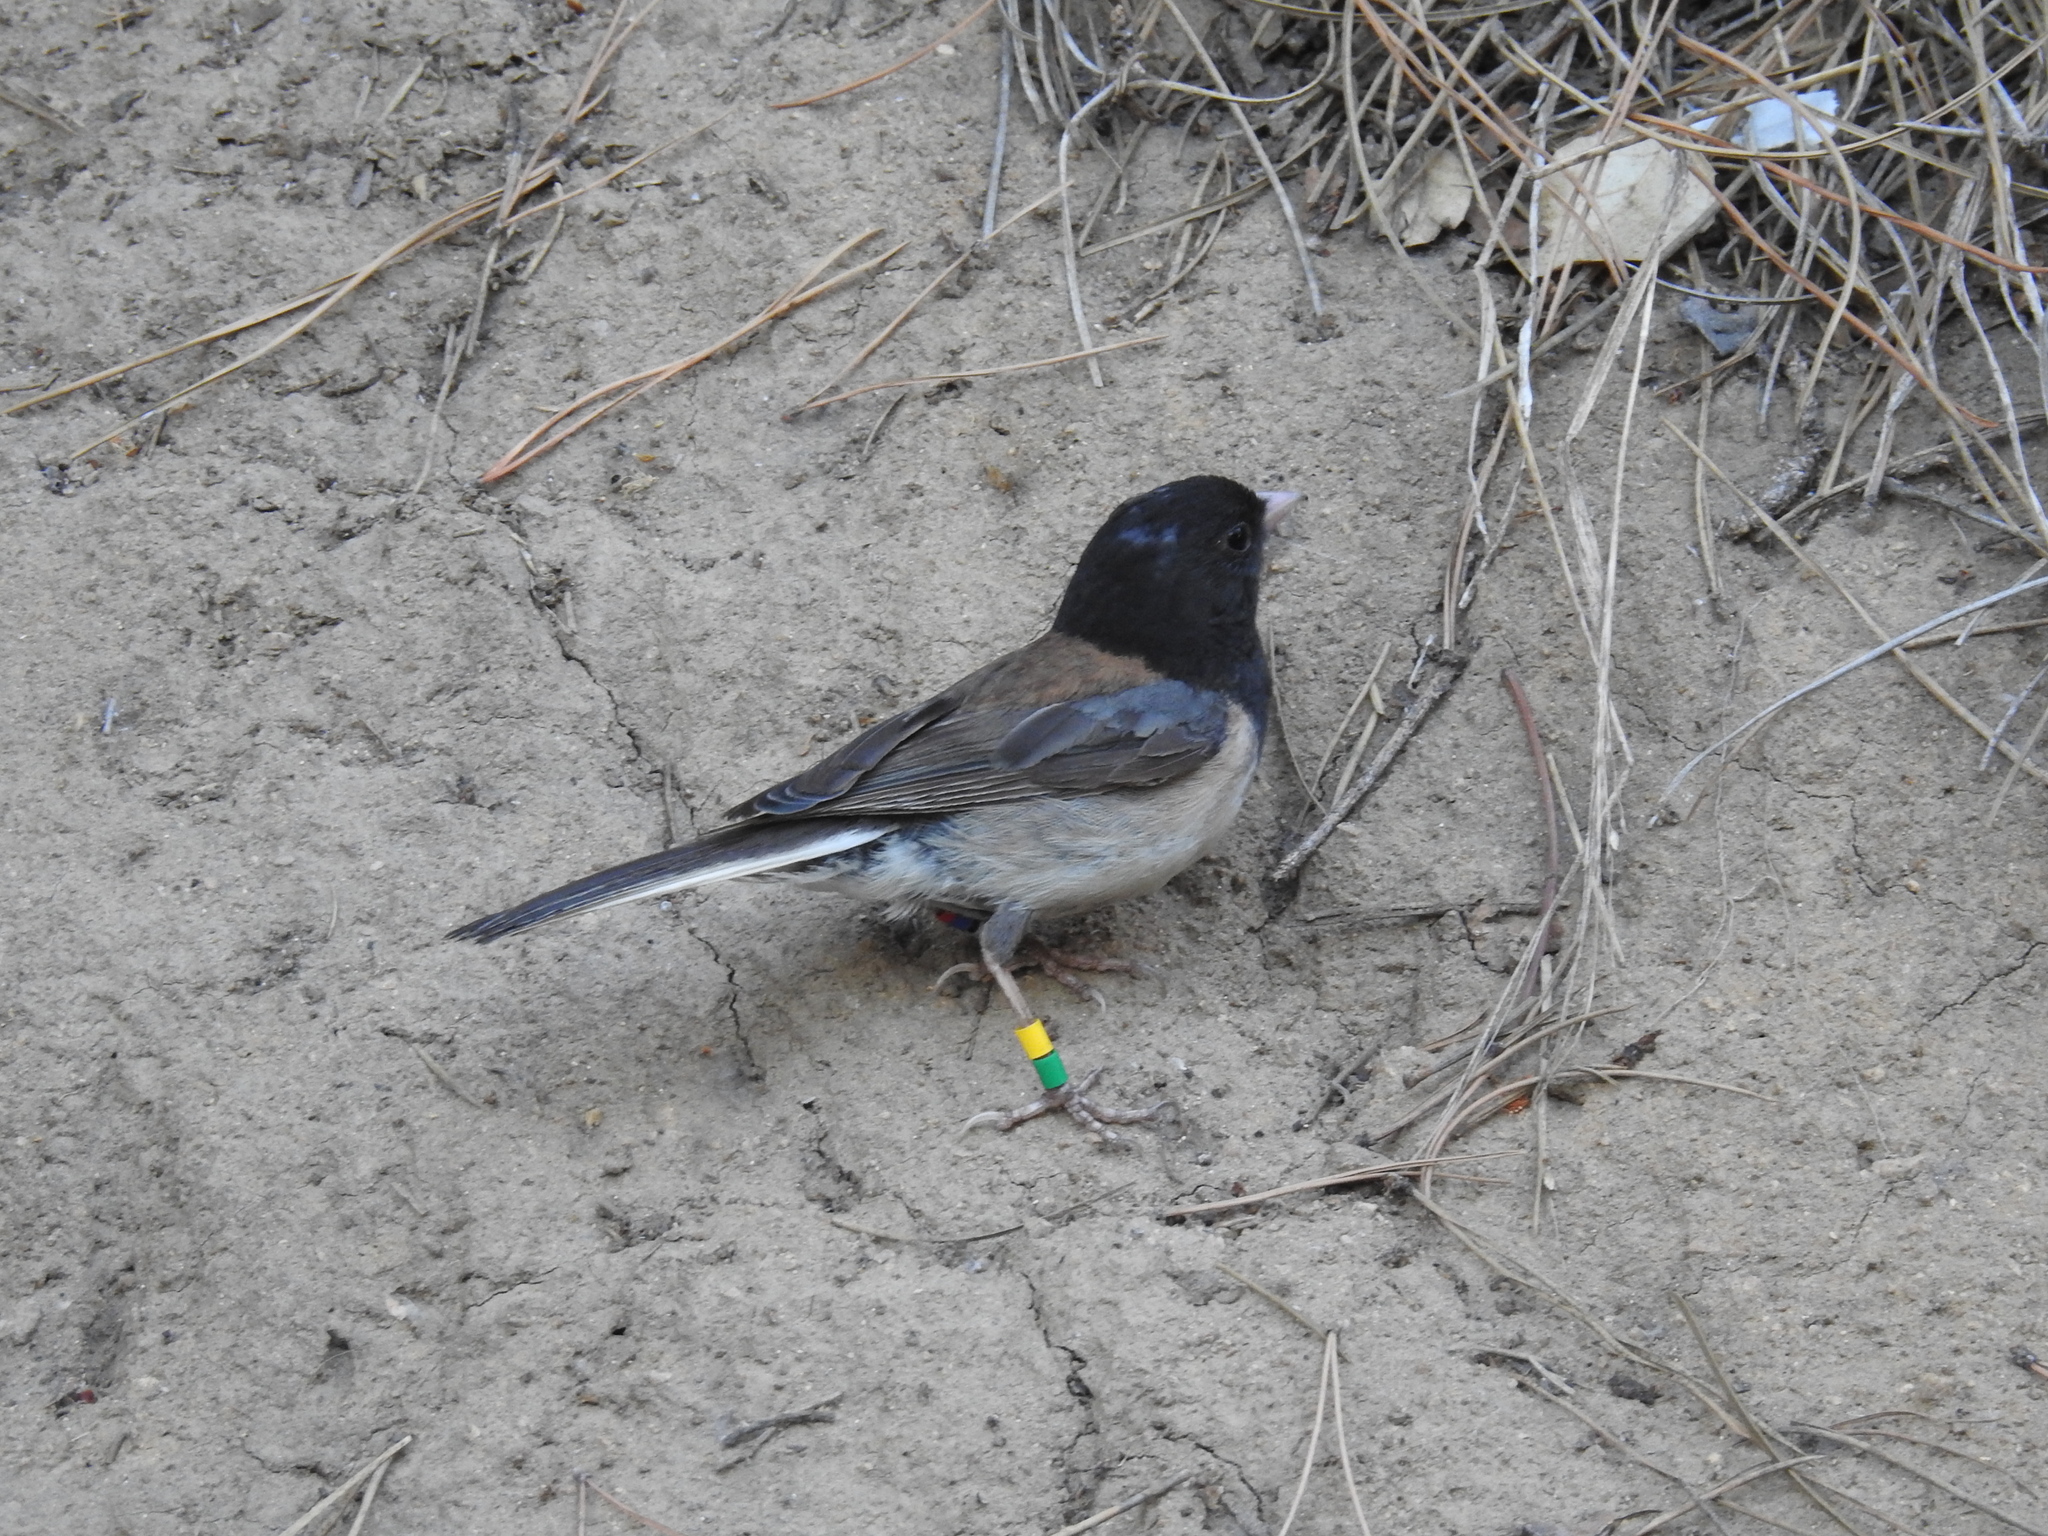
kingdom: Animalia
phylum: Chordata
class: Aves
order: Passeriformes
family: Passerellidae
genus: Junco
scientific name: Junco hyemalis
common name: Dark-eyed junco
